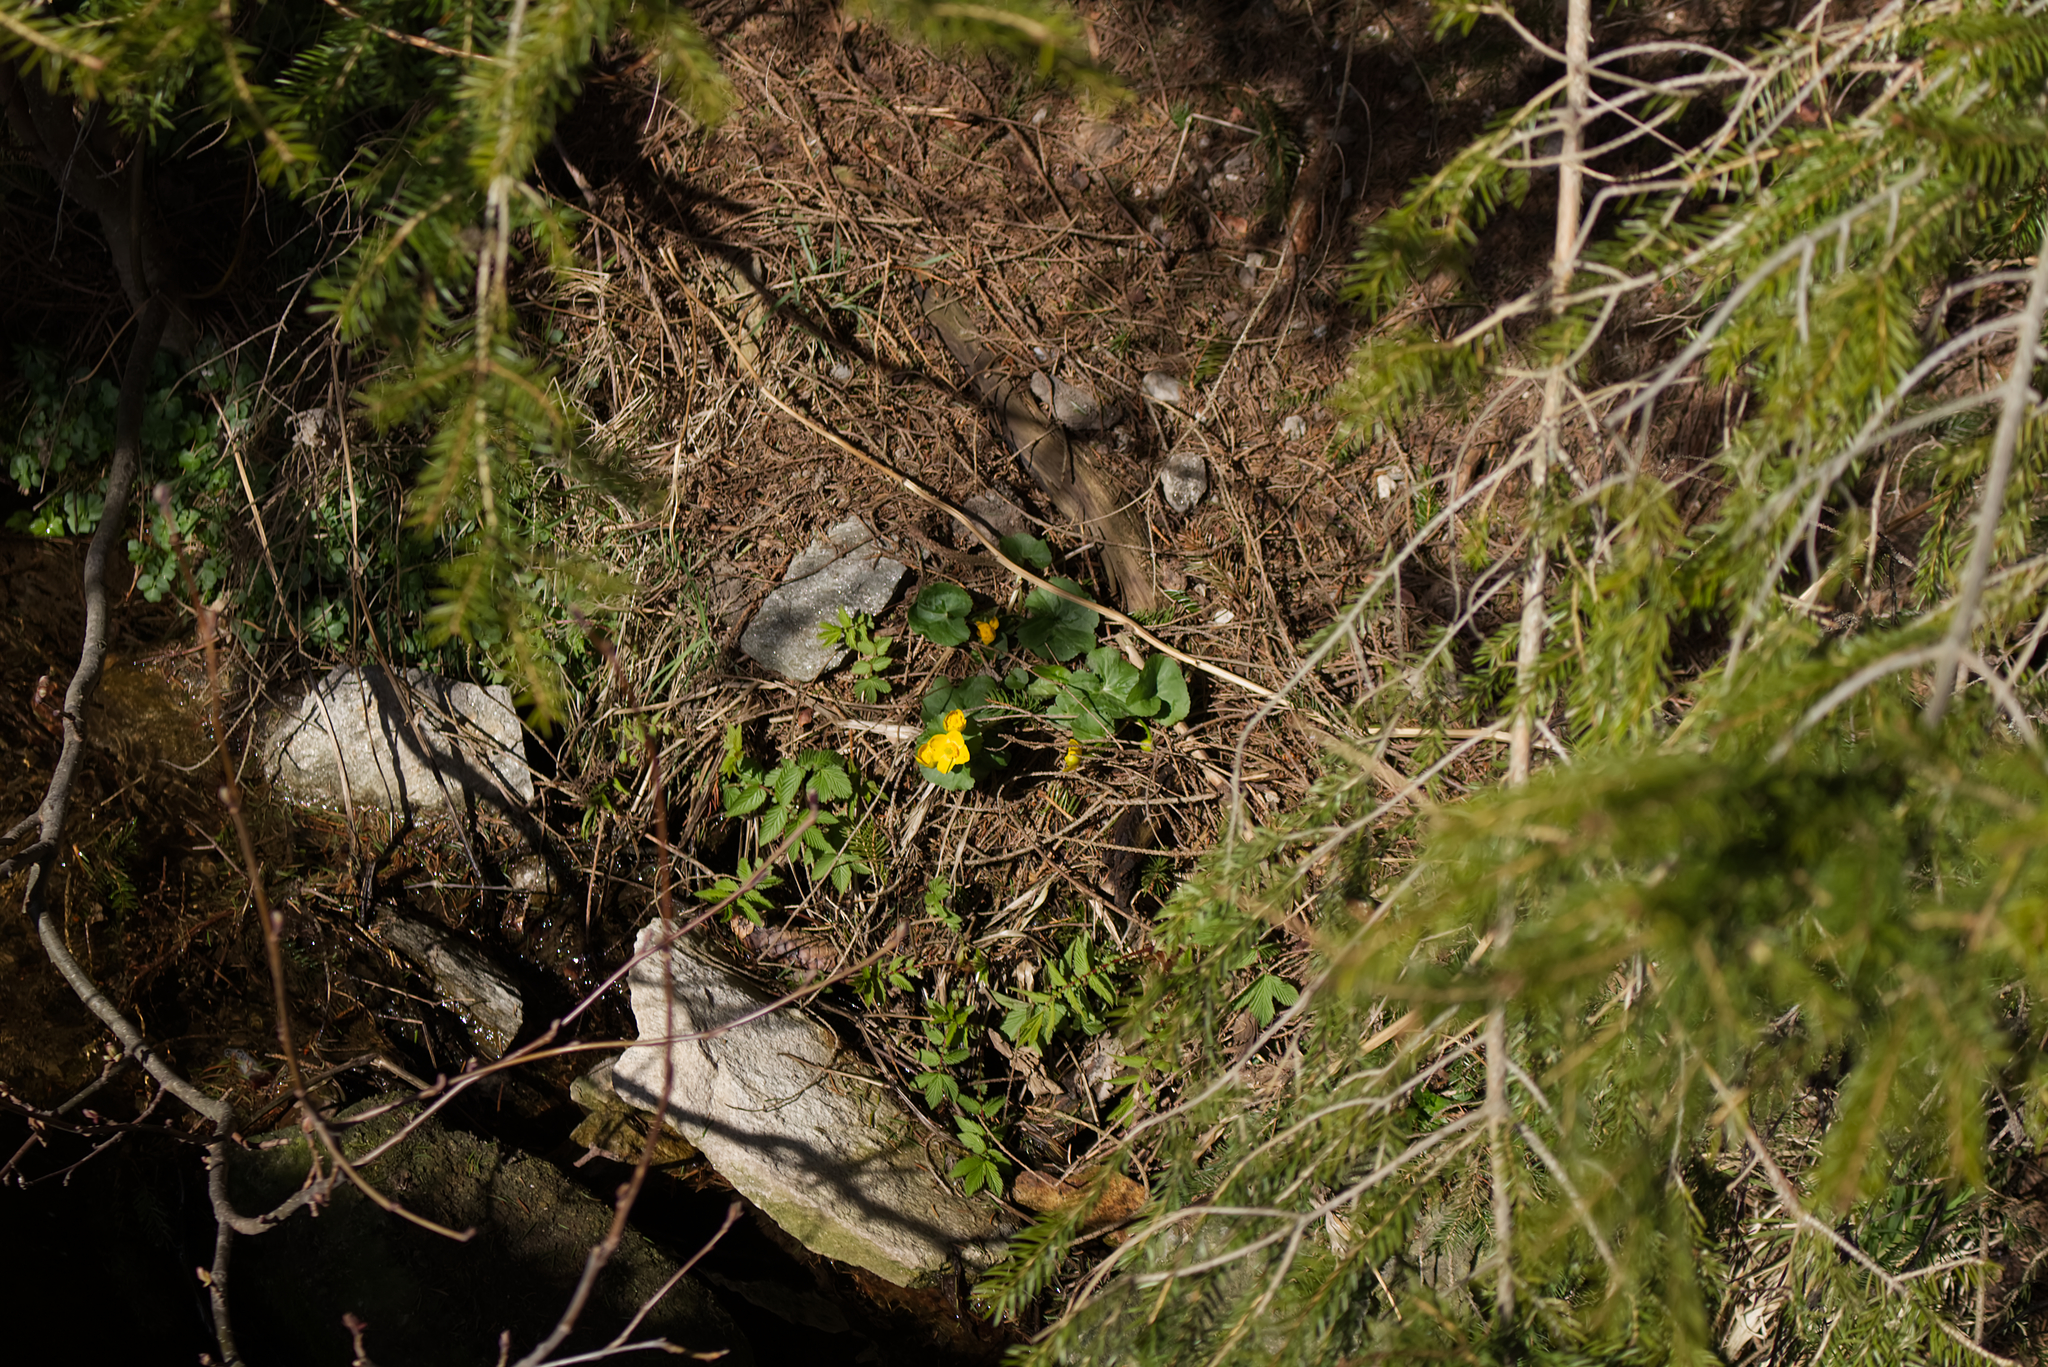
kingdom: Plantae
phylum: Tracheophyta
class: Magnoliopsida
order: Ranunculales
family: Ranunculaceae
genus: Caltha
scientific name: Caltha palustris
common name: Marsh marigold
